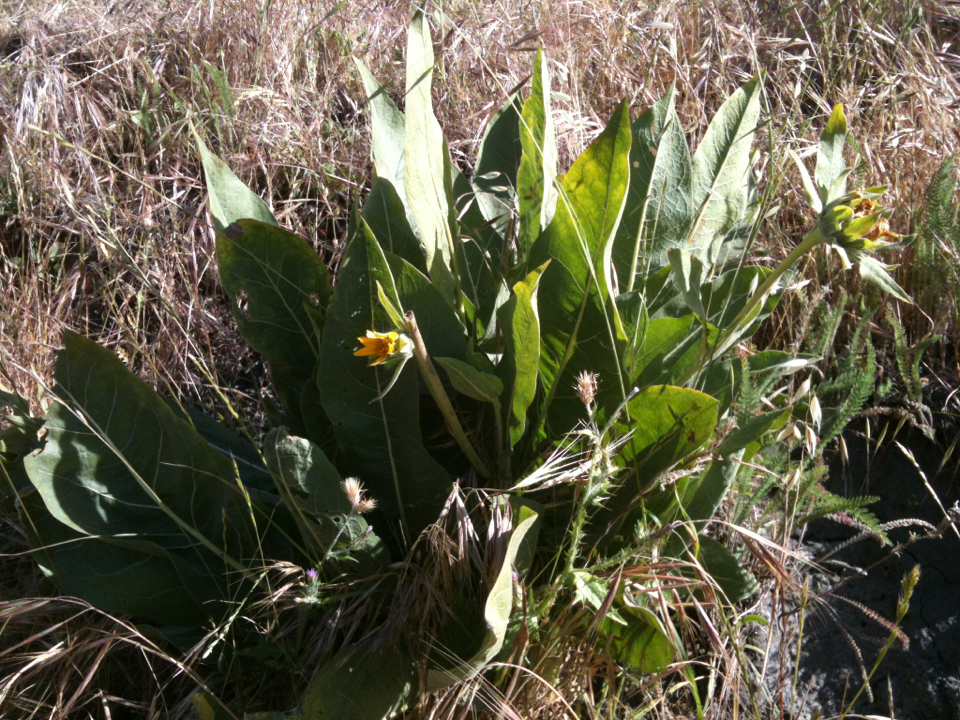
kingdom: Plantae
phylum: Tracheophyta
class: Magnoliopsida
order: Asterales
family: Asteraceae
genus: Wyethia
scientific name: Wyethia glabra
